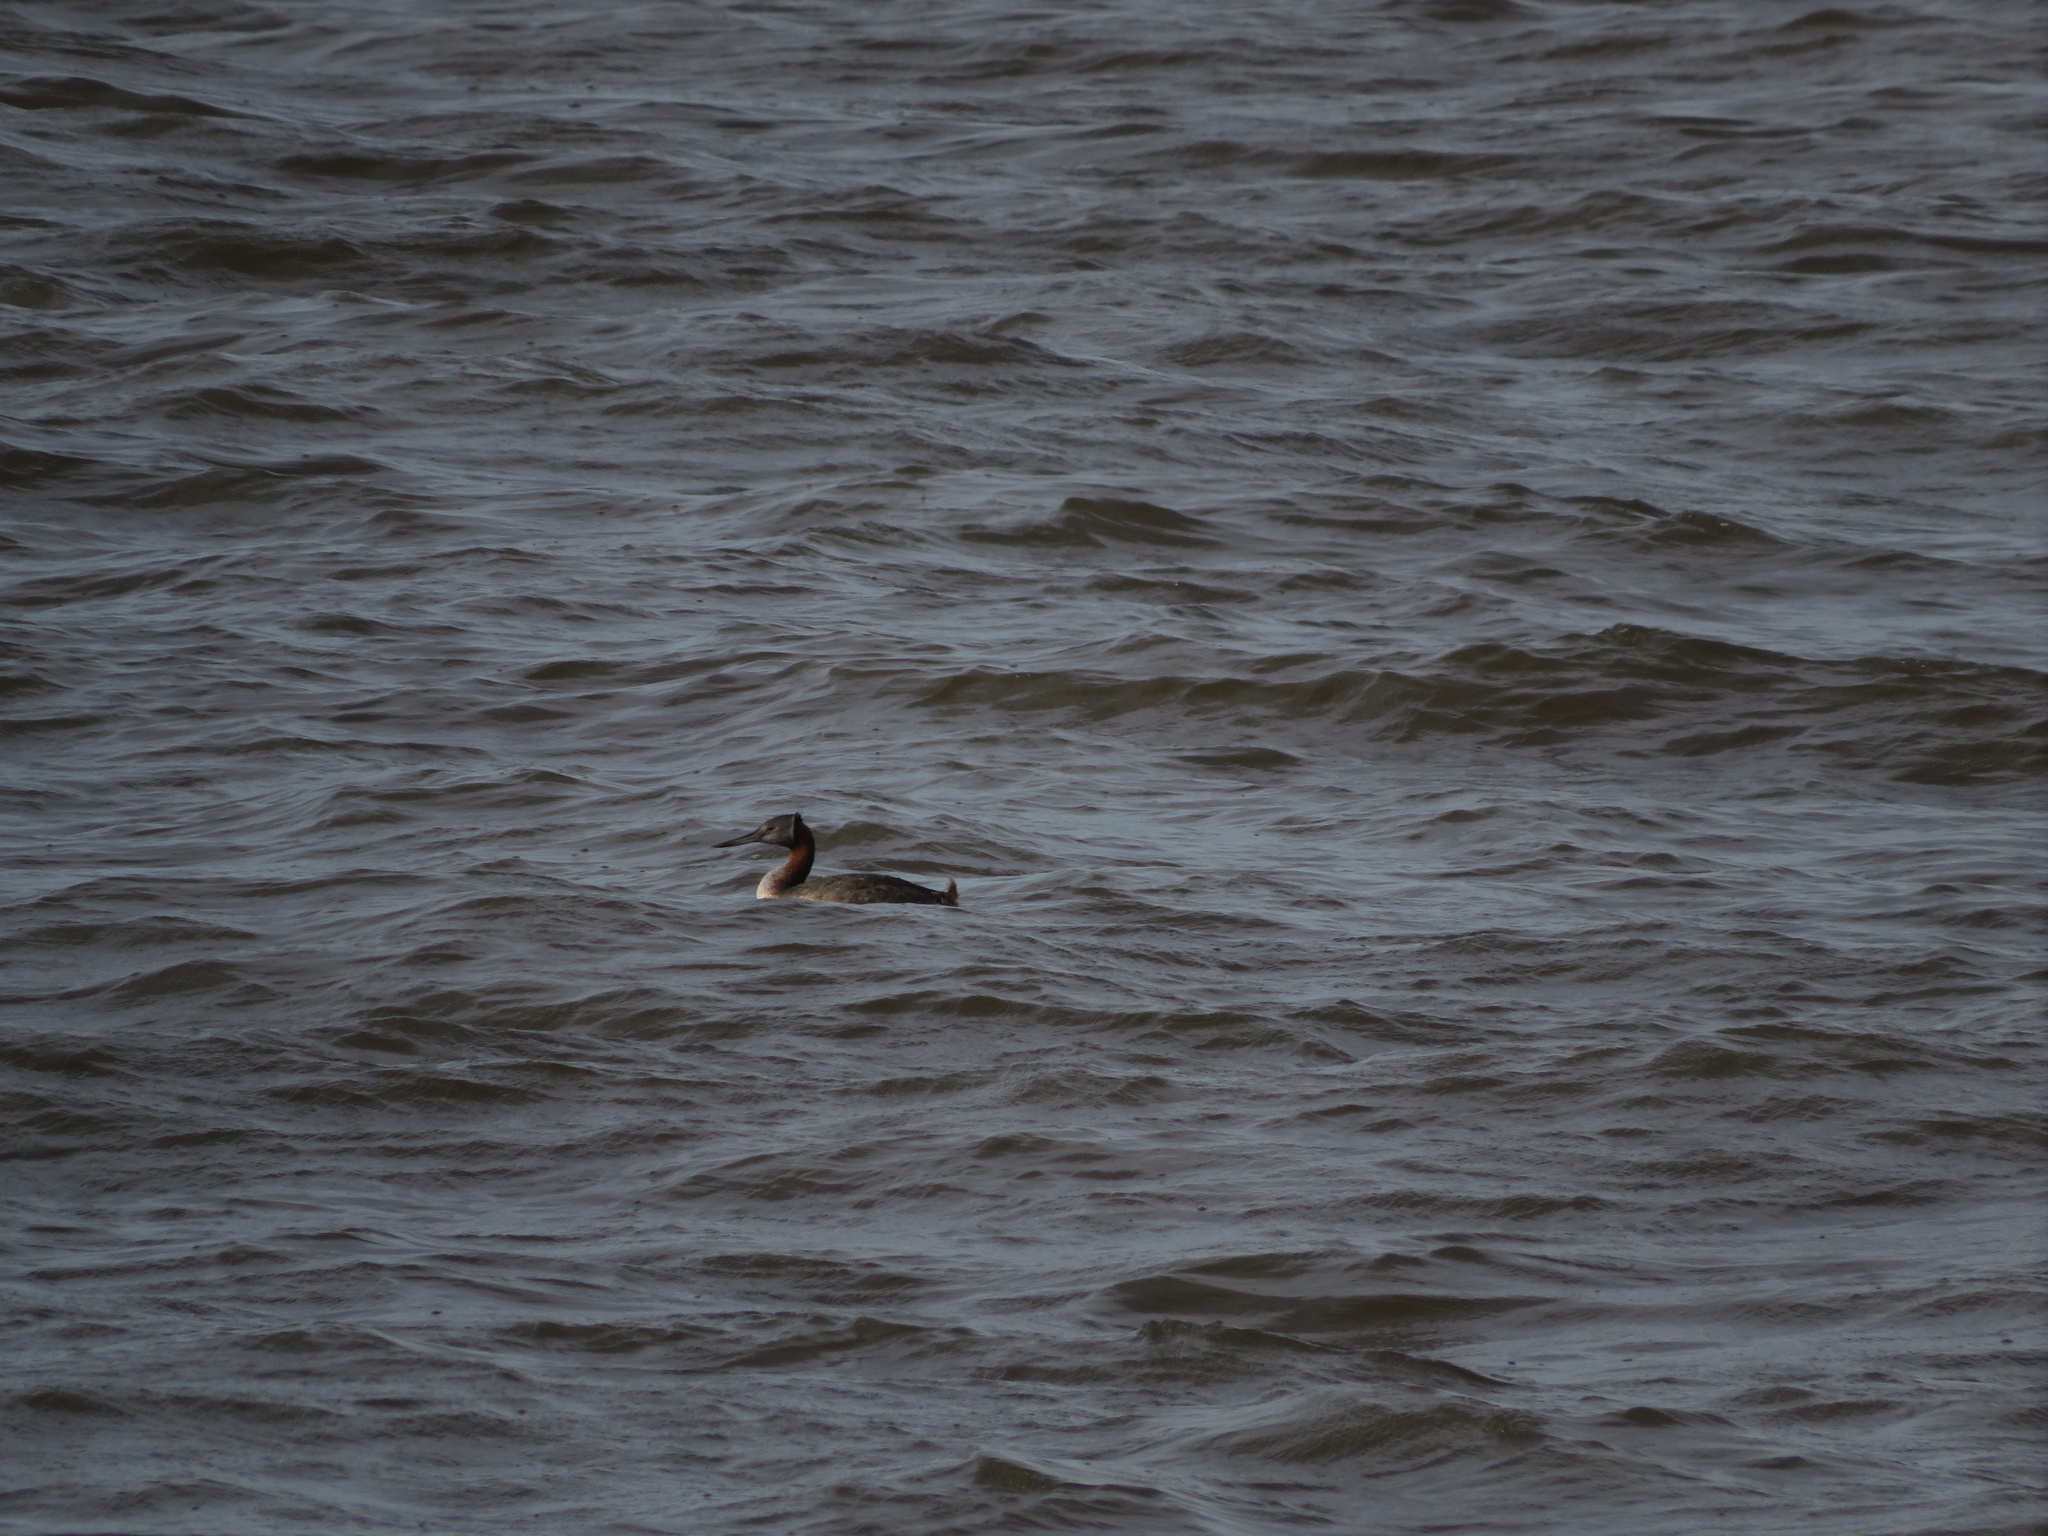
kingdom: Animalia
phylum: Chordata
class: Aves
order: Podicipediformes
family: Podicipedidae
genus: Podiceps
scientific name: Podiceps major
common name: Great grebe
